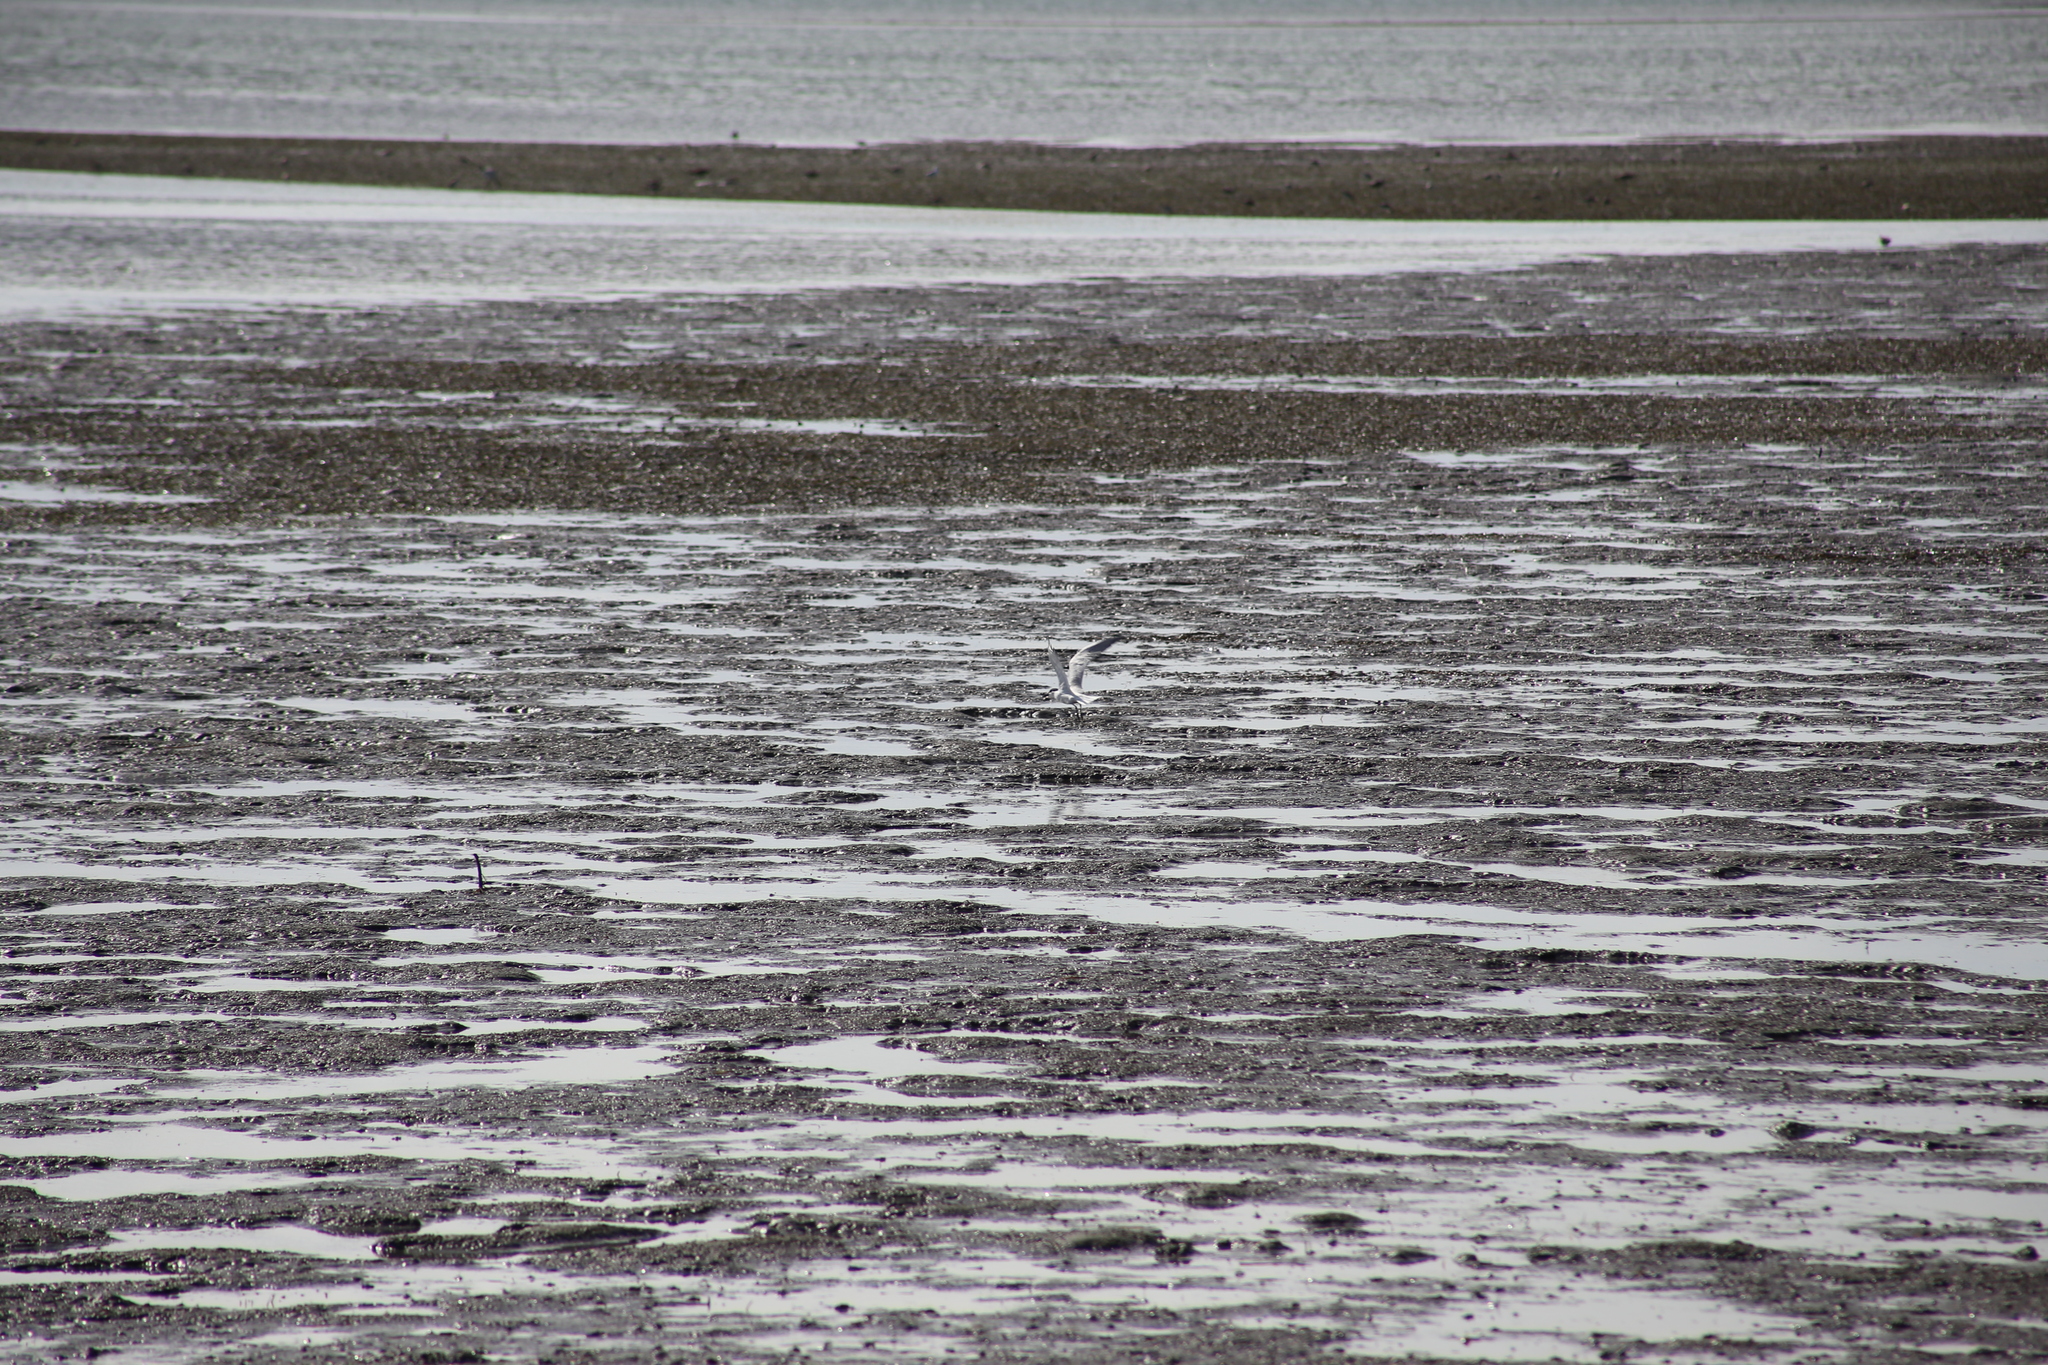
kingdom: Animalia
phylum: Chordata
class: Aves
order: Charadriiformes
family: Laridae
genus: Gelochelidon
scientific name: Gelochelidon macrotarsa
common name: Australian tern
